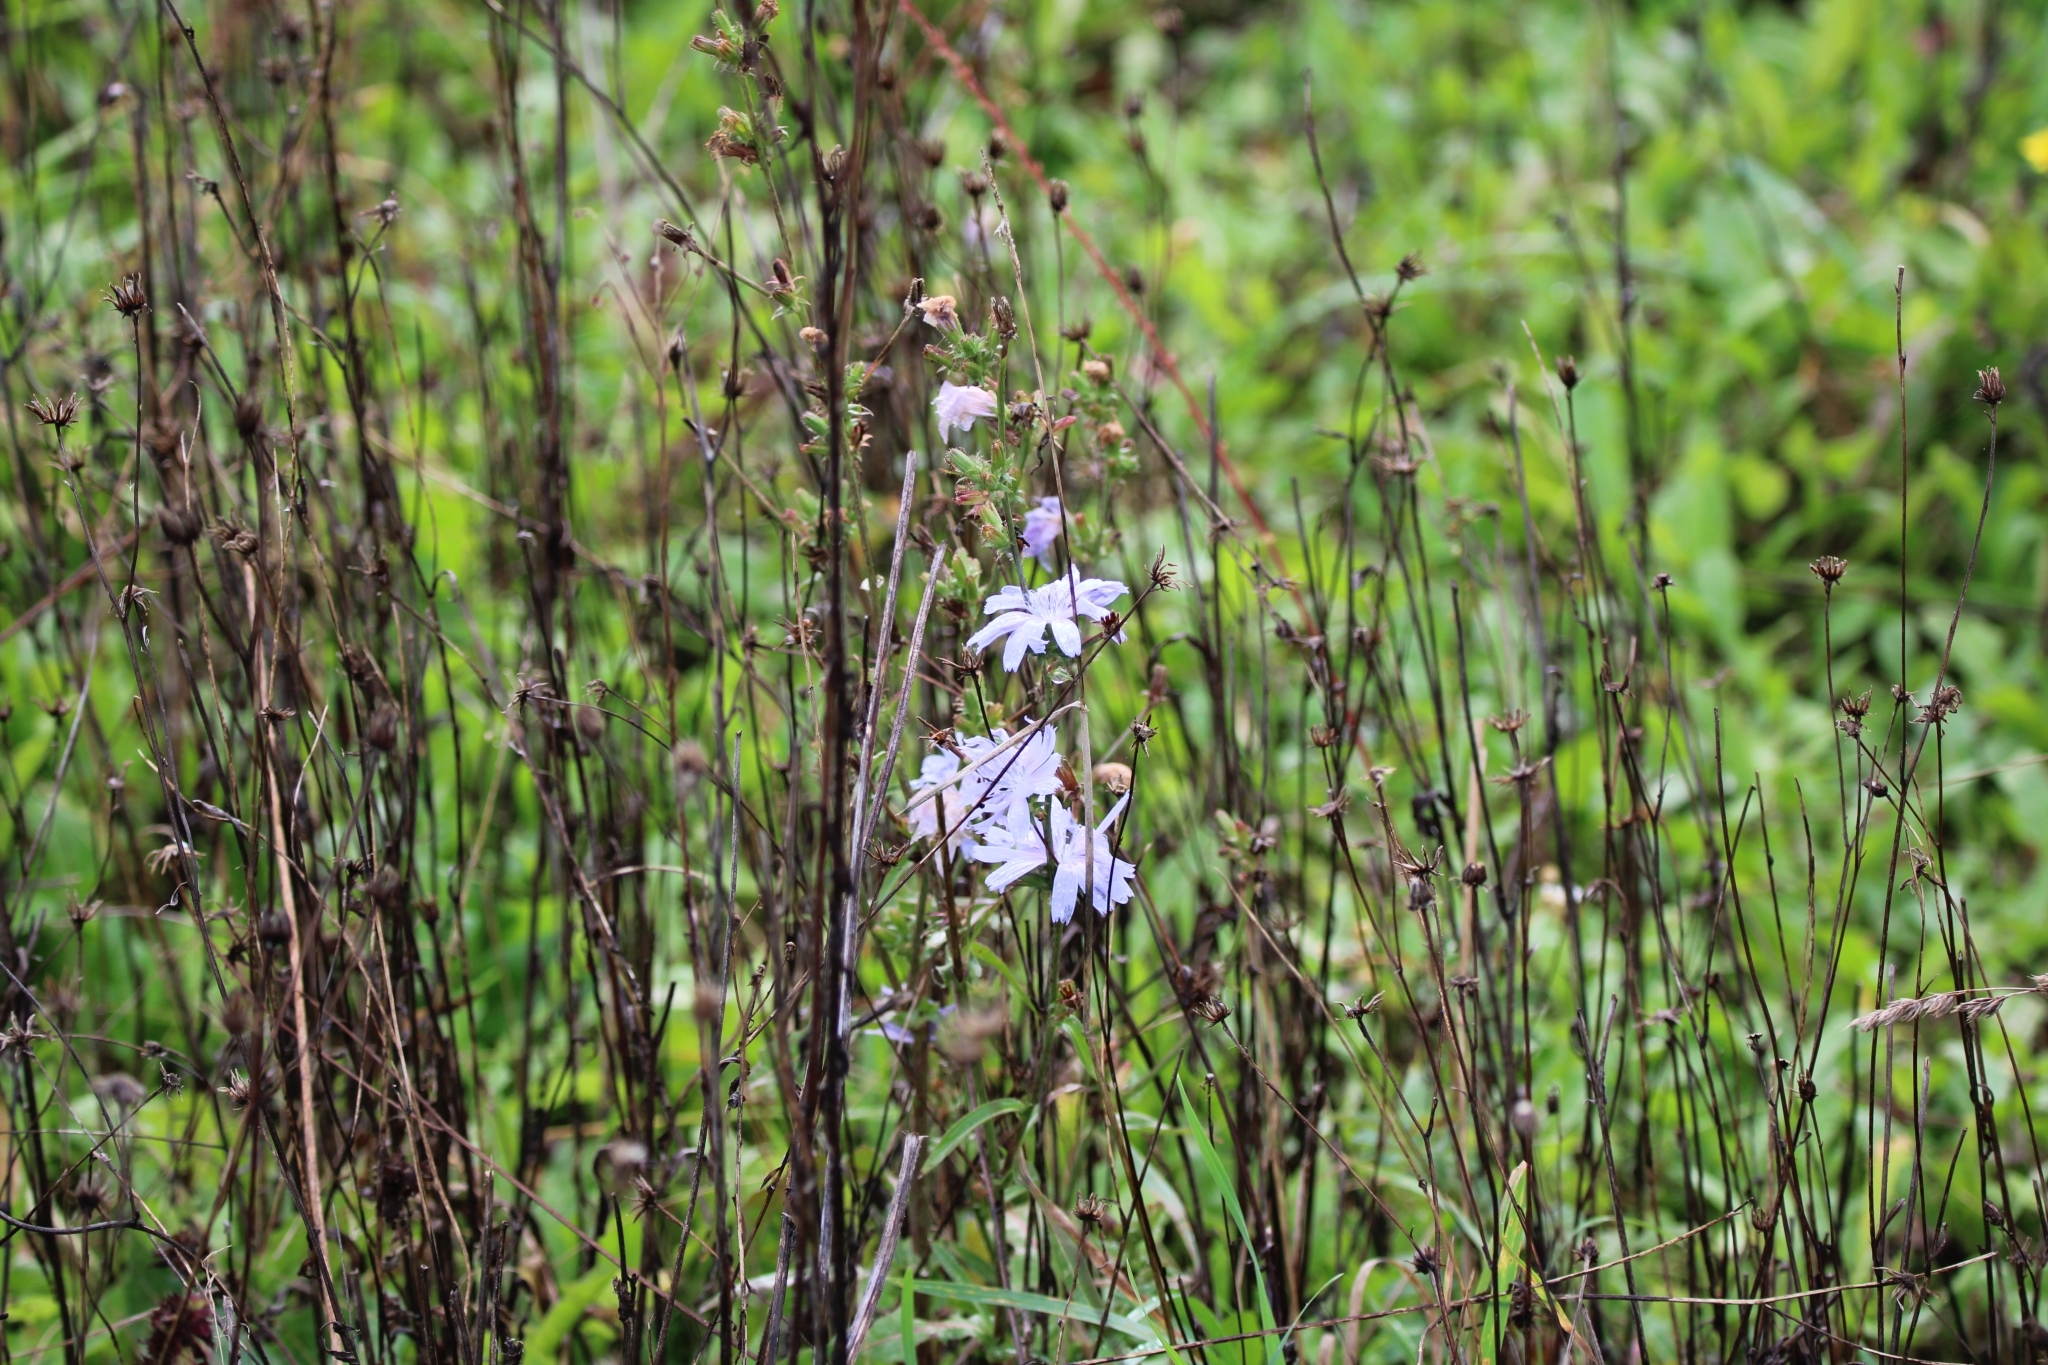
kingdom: Plantae
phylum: Tracheophyta
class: Magnoliopsida
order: Asterales
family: Asteraceae
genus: Cichorium
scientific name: Cichorium intybus
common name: Chicory
